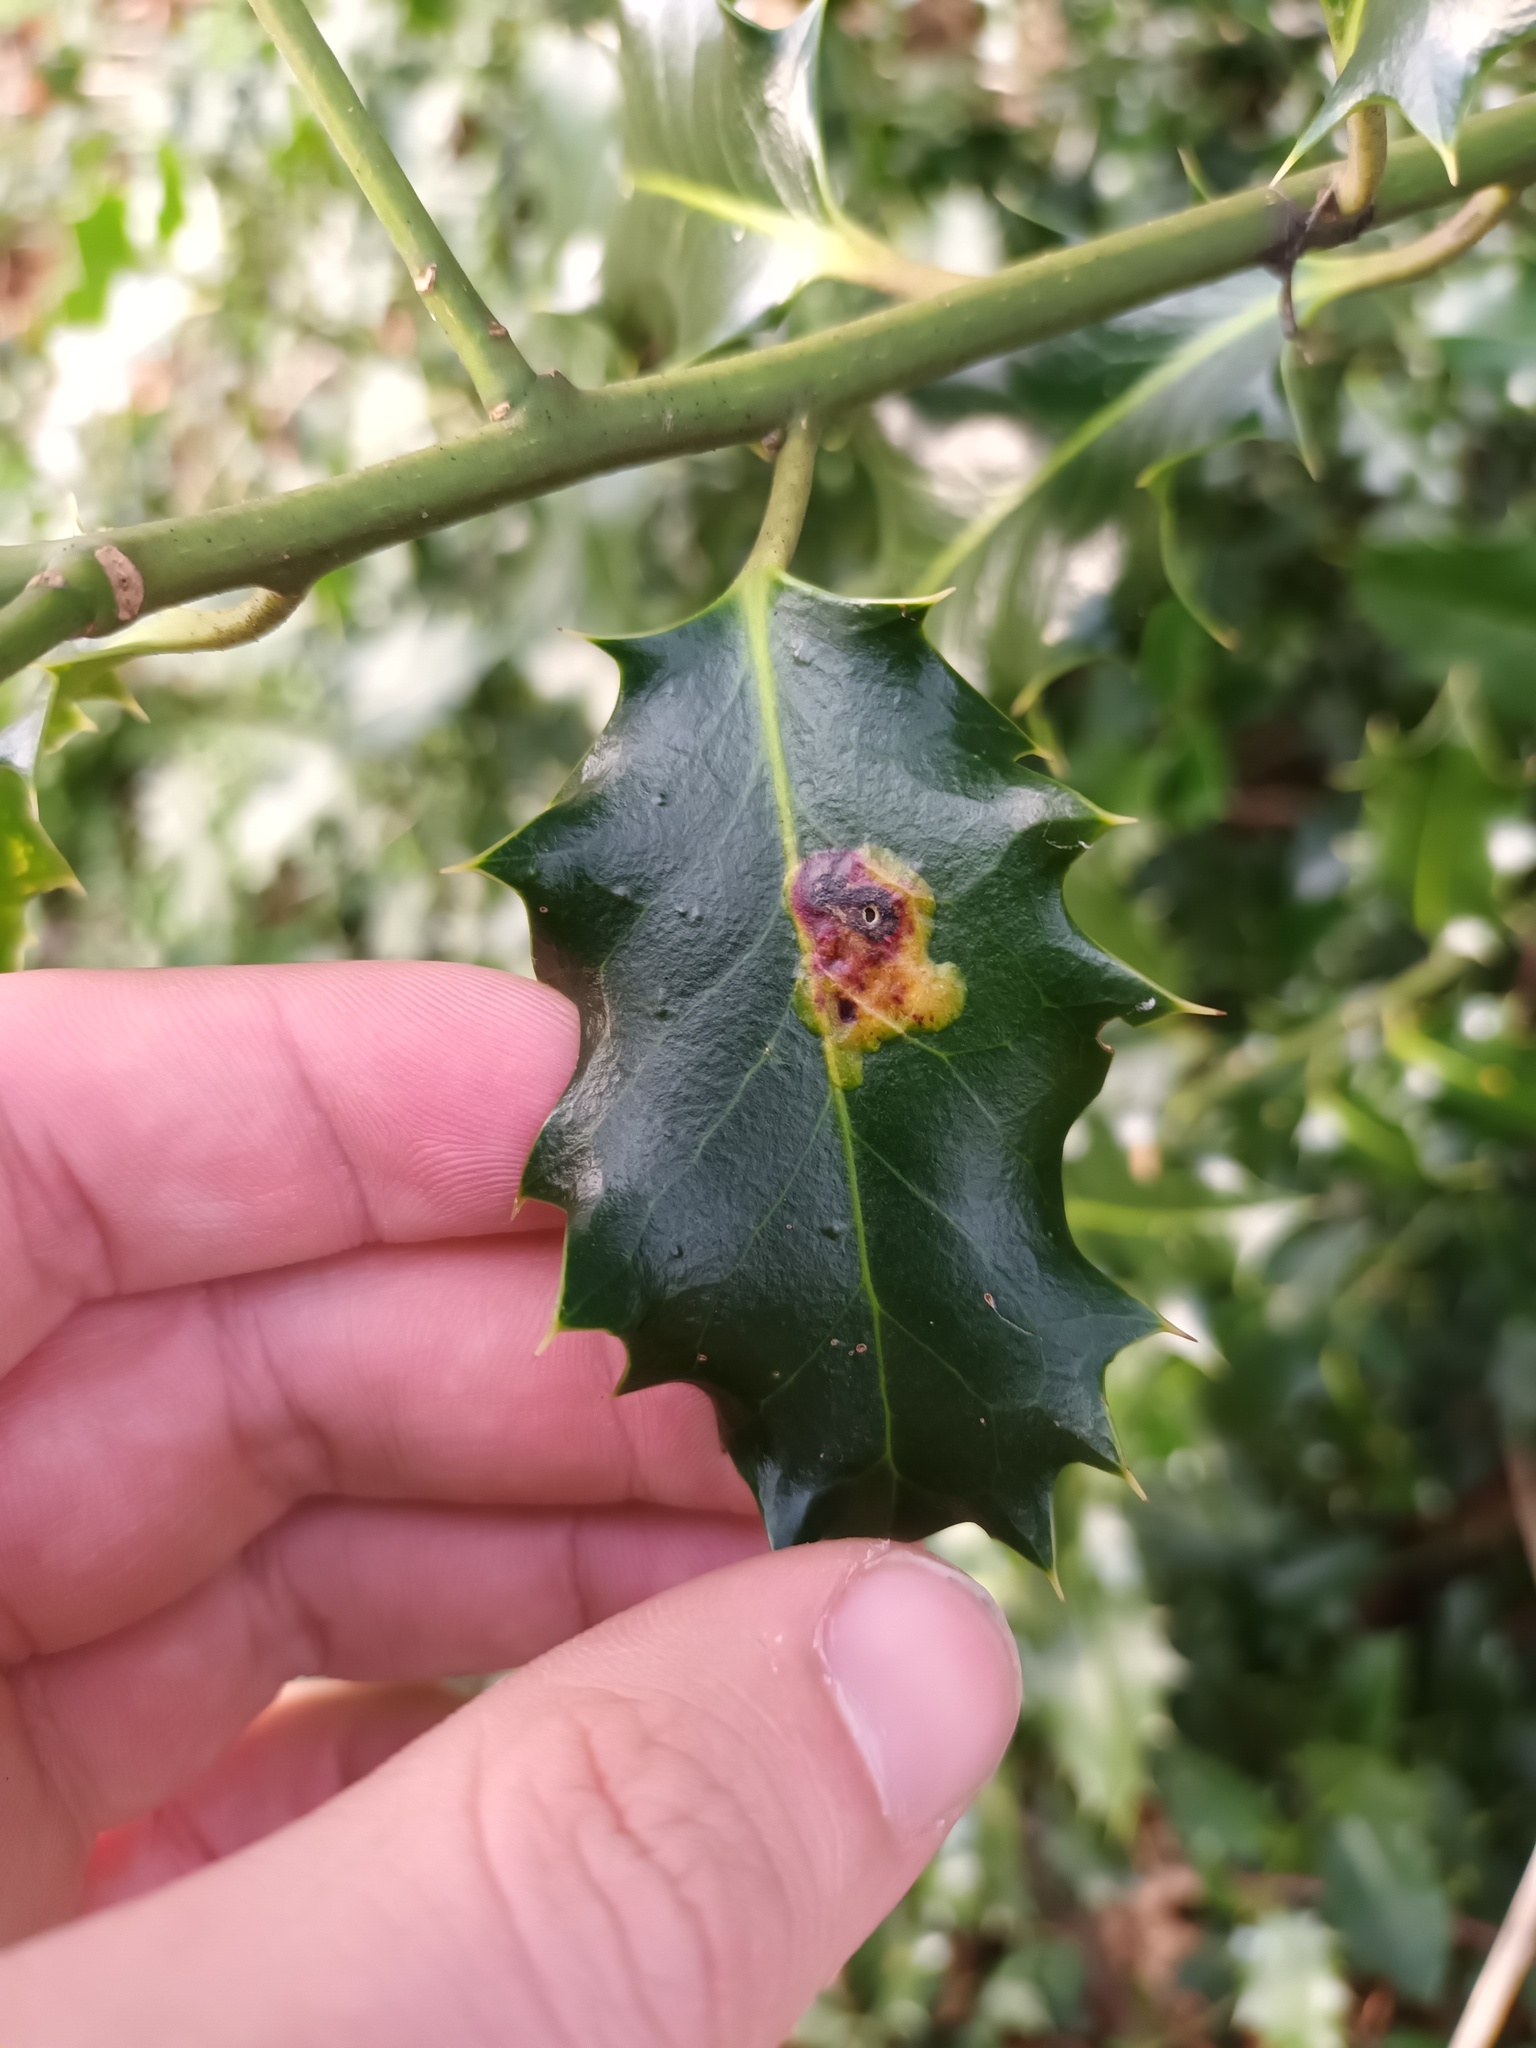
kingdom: Animalia
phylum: Arthropoda
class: Insecta
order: Diptera
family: Agromyzidae
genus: Phytomyza
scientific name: Phytomyza ilicis
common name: Holly leafminer
